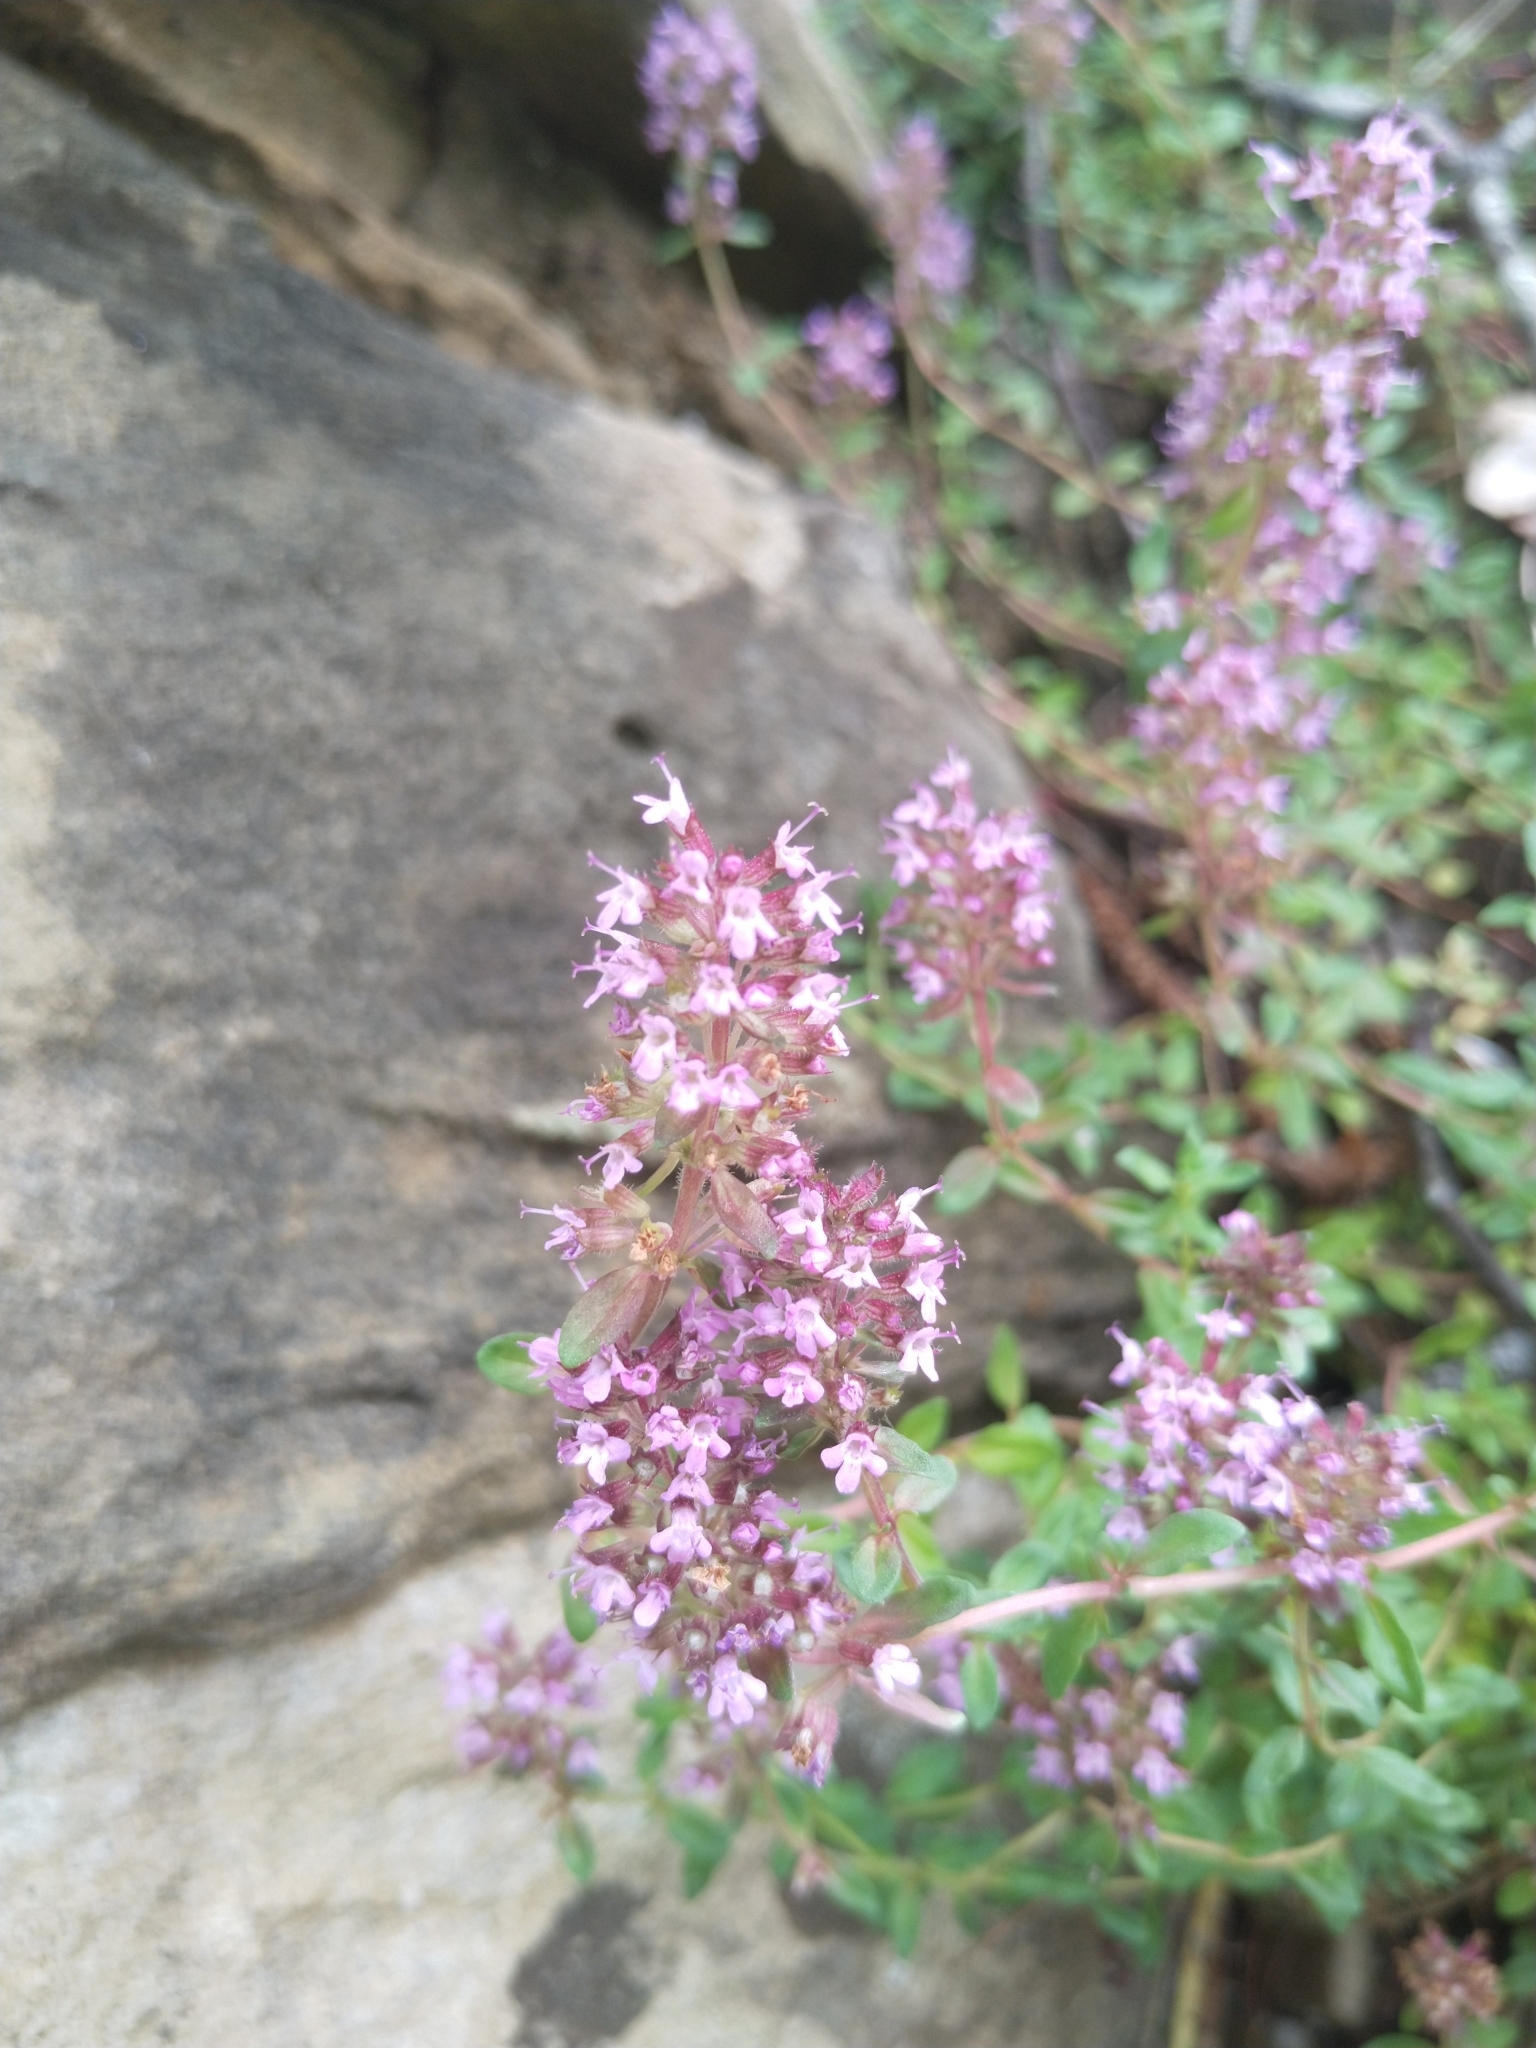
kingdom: Plantae
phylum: Tracheophyta
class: Magnoliopsida
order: Lamiales
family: Lamiaceae
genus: Thymus
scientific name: Thymus pulegioides
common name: Large thyme
